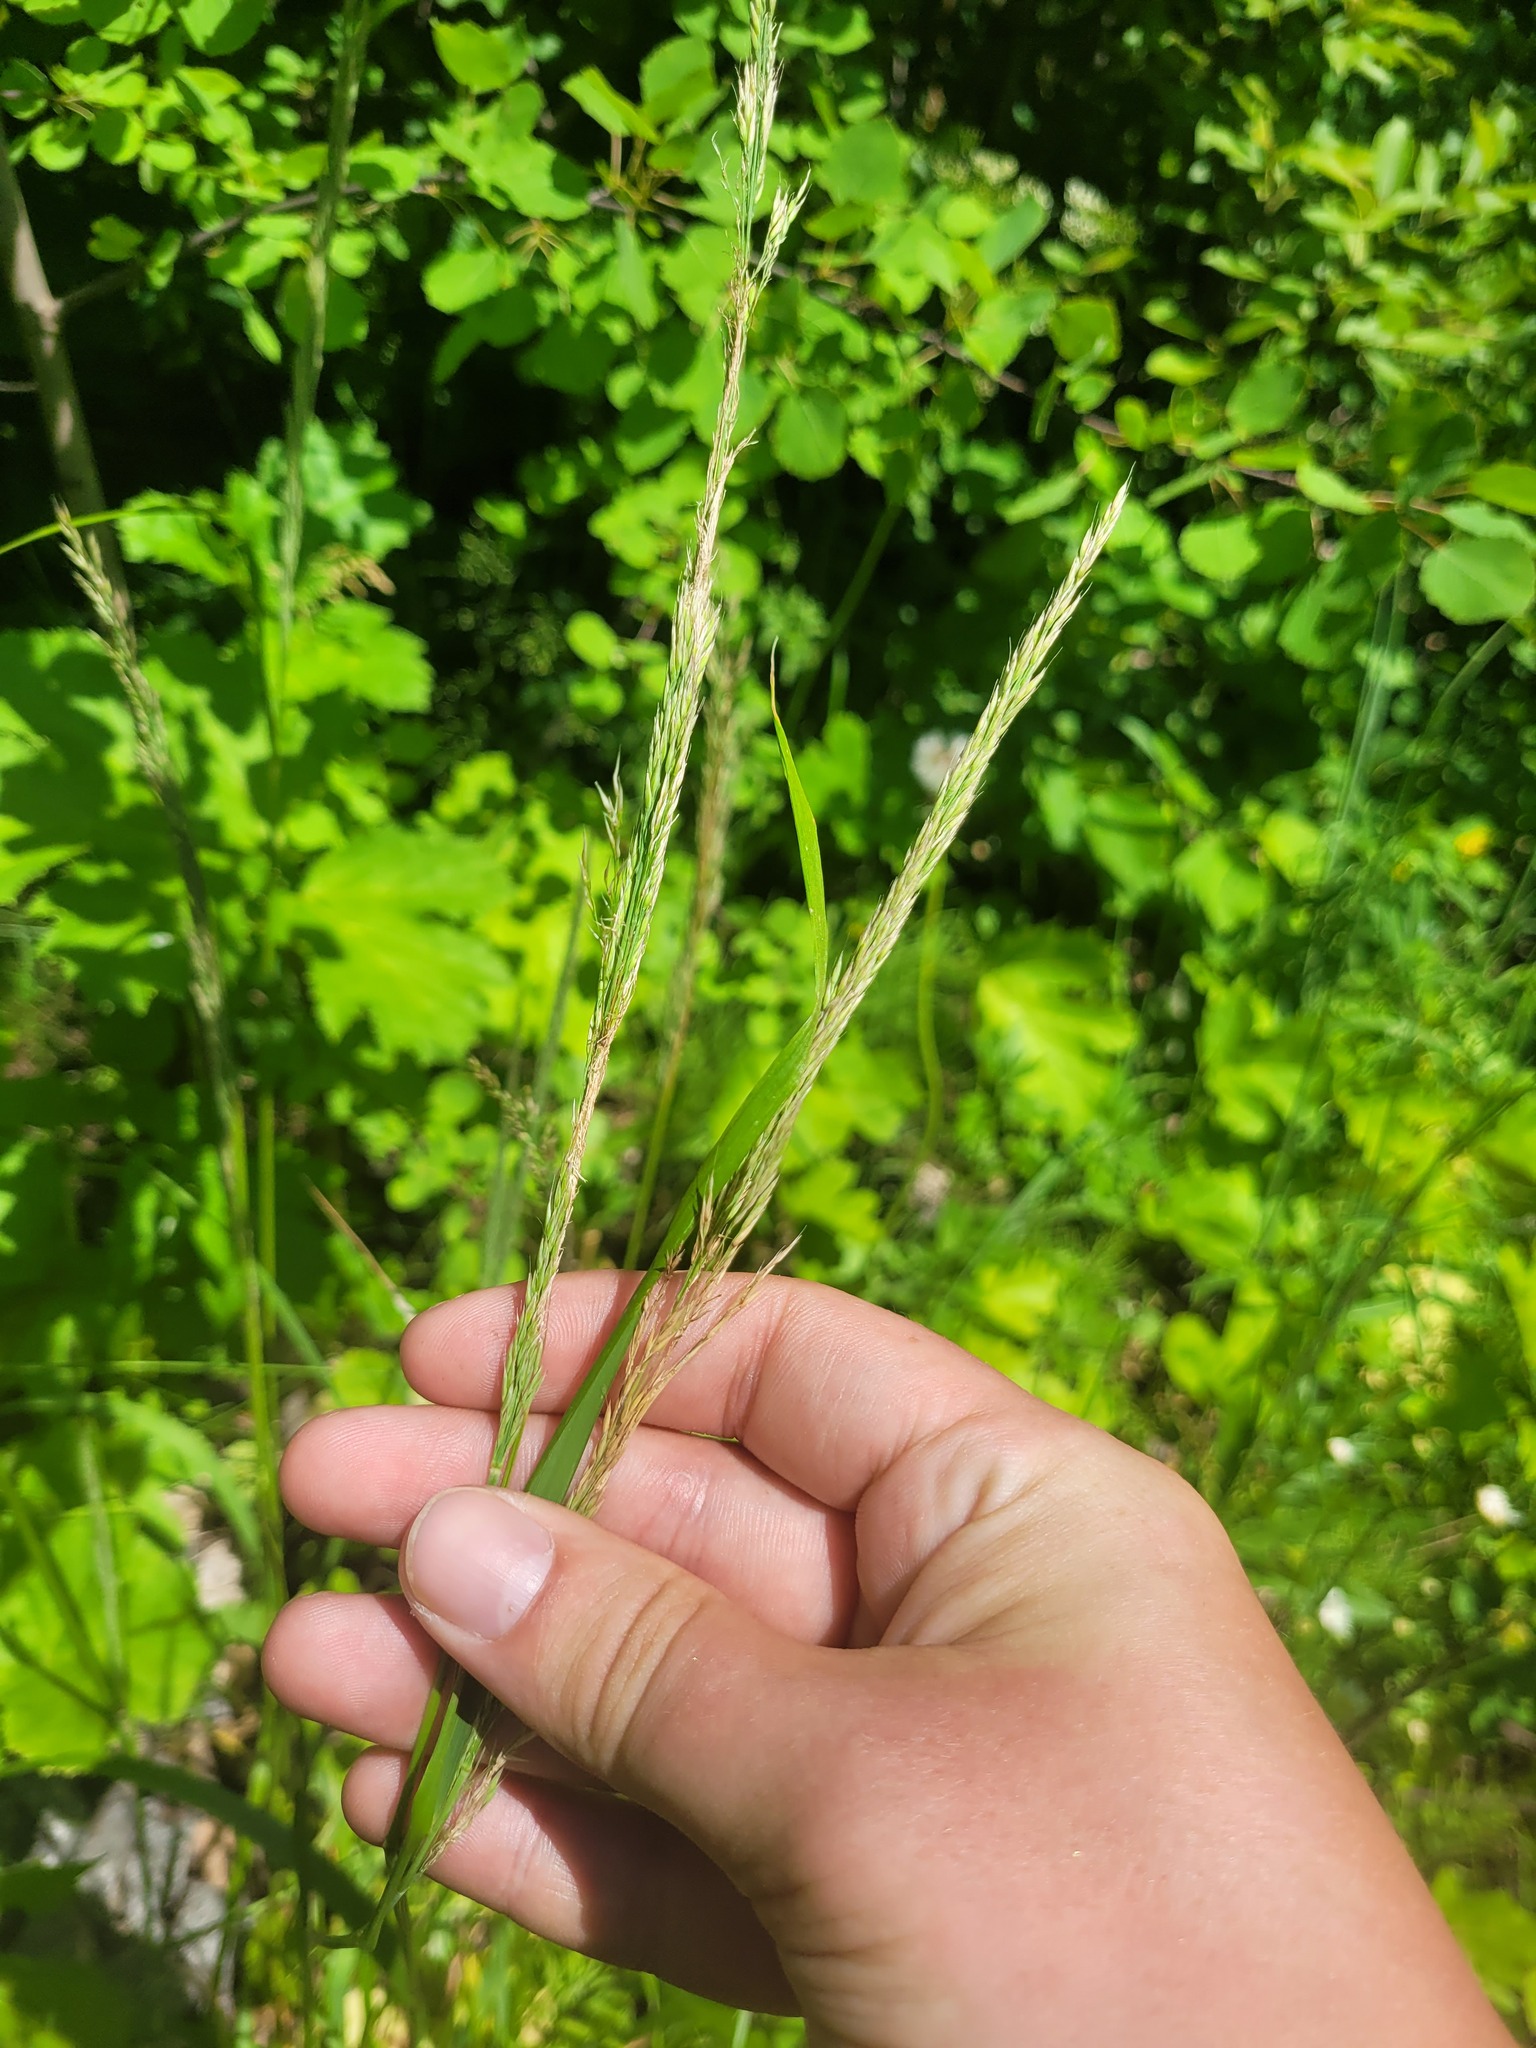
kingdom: Plantae
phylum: Tracheophyta
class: Liliopsida
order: Poales
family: Poaceae
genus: Calamagrostis
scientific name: Calamagrostis arundinacea
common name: Metskastik
